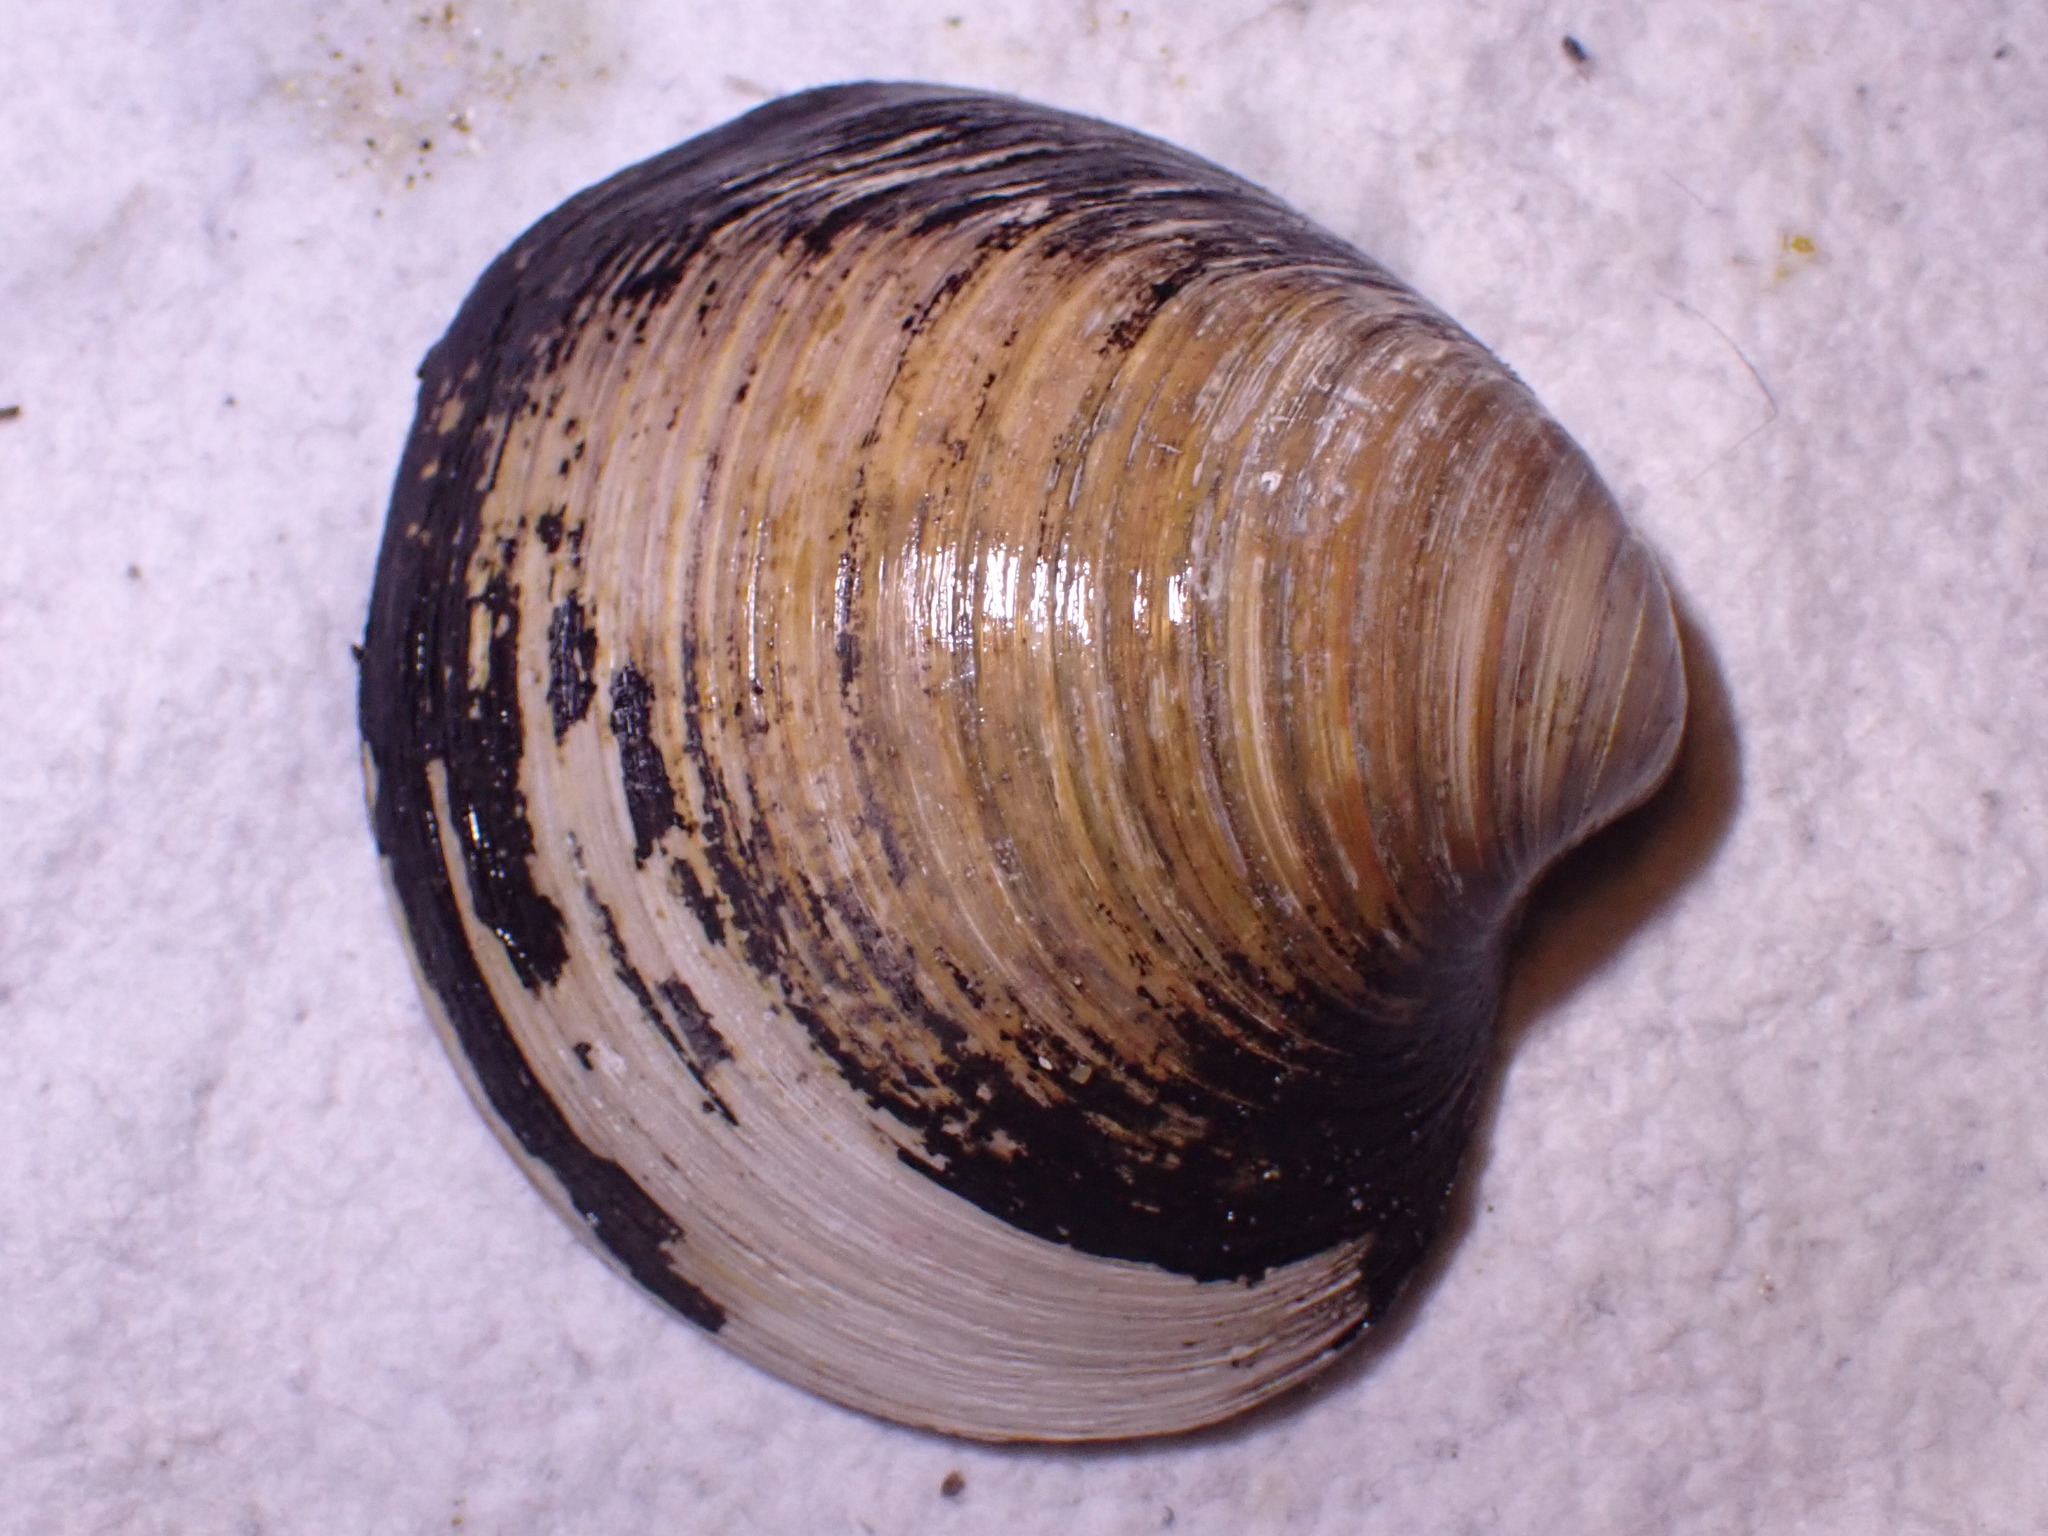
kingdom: Animalia
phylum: Mollusca
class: Bivalvia
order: Venerida
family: Arcticidae
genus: Arctica
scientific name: Arctica islandica
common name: Icelandic cyprine
